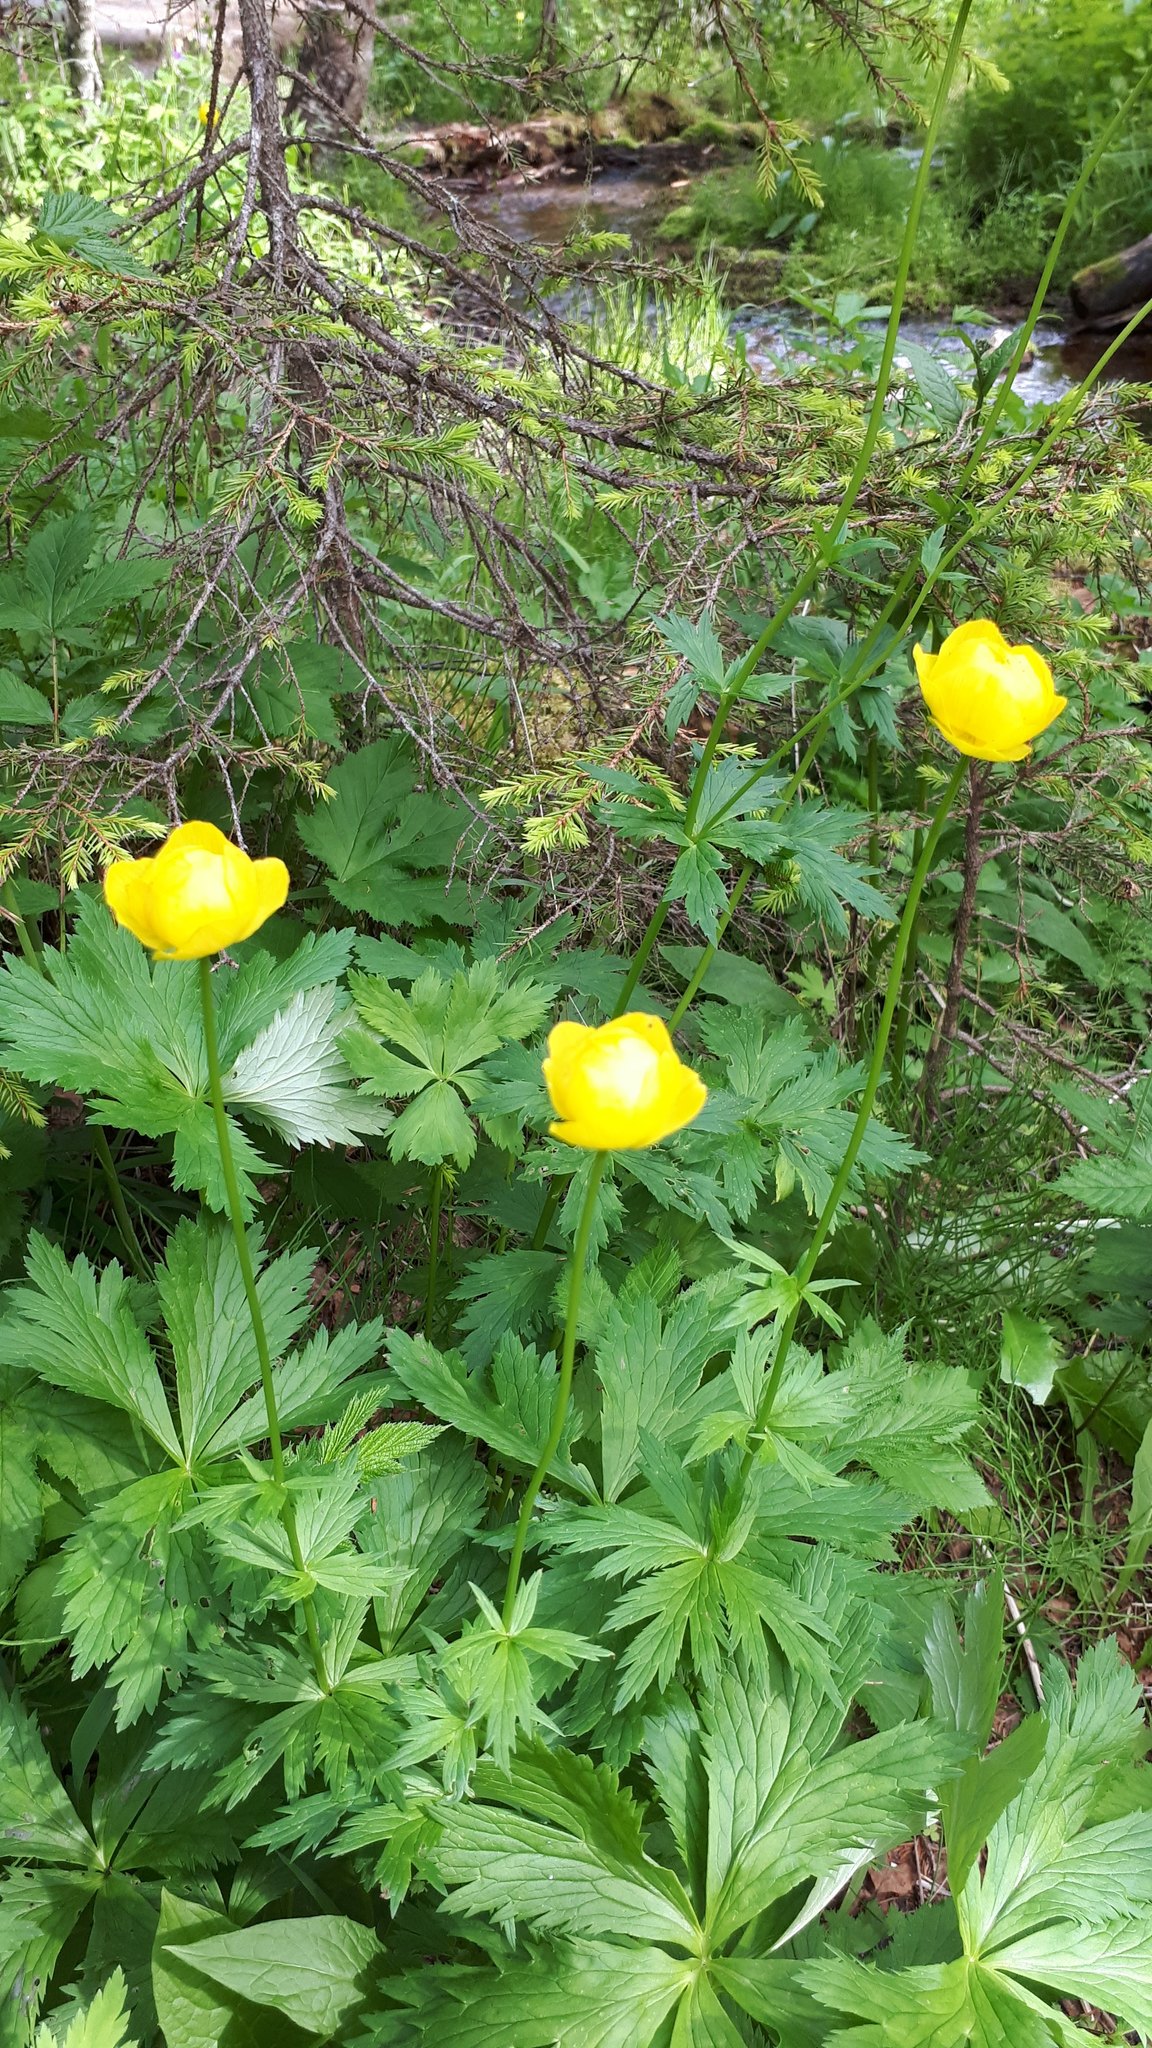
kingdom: Plantae
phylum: Tracheophyta
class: Magnoliopsida
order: Ranunculales
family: Ranunculaceae
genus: Trollius
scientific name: Trollius europaeus
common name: European globeflower
